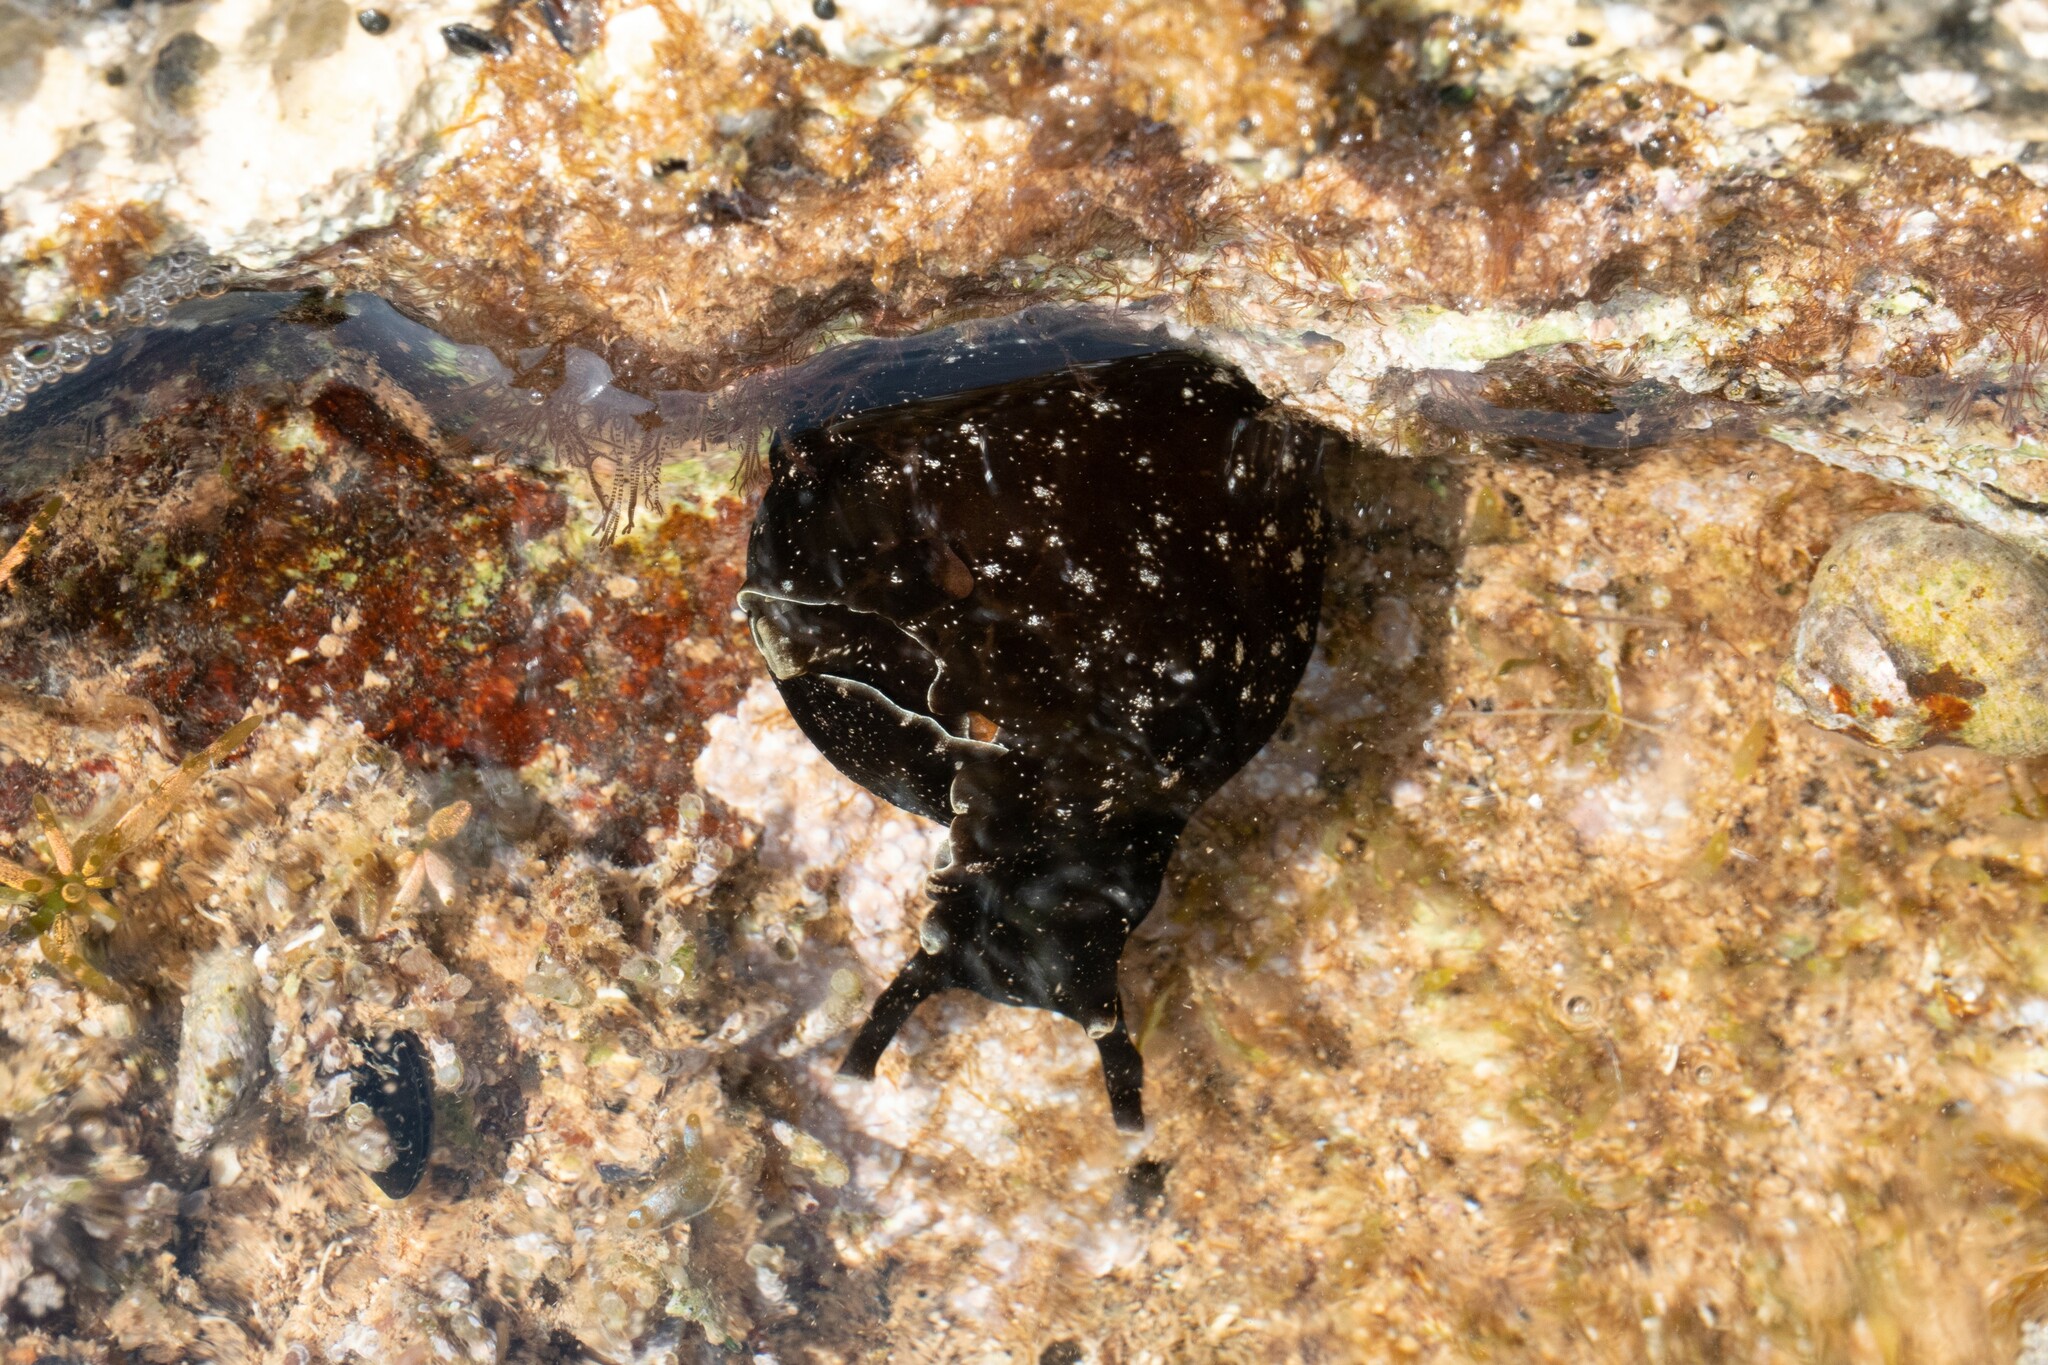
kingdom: Animalia
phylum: Mollusca
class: Gastropoda
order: Aplysiida
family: Aplysiidae
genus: Aplysia
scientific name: Aplysia punctata
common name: Common sea hare
